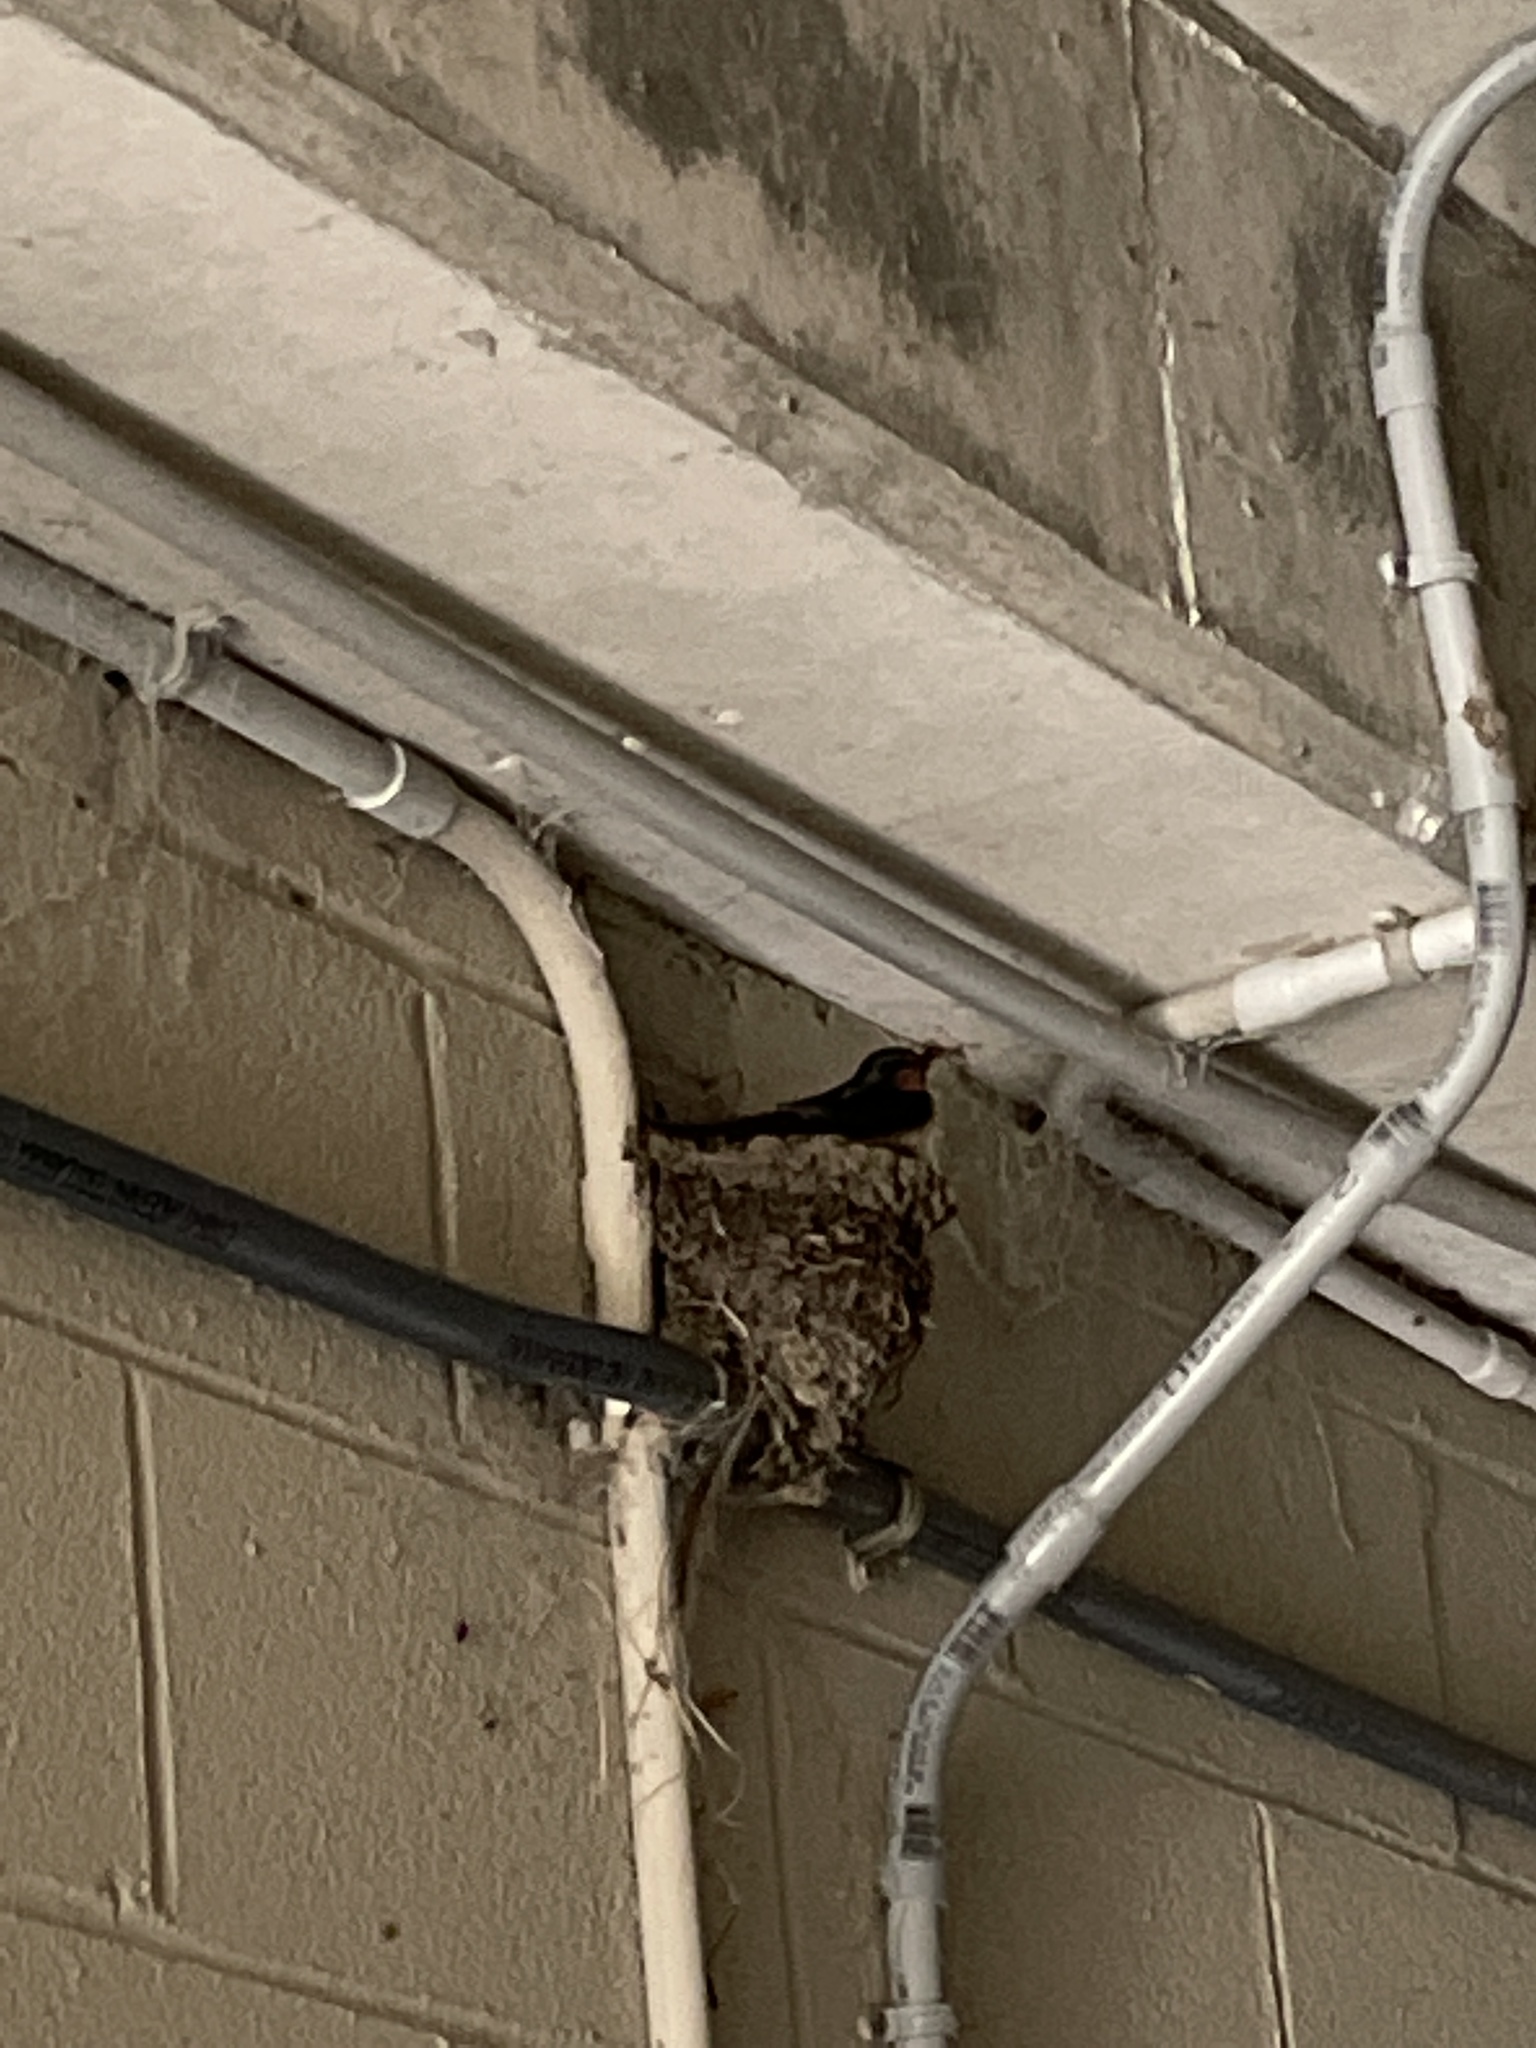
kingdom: Animalia
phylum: Chordata
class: Aves
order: Passeriformes
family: Hirundinidae
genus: Hirundo
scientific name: Hirundo rustica
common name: Barn swallow
